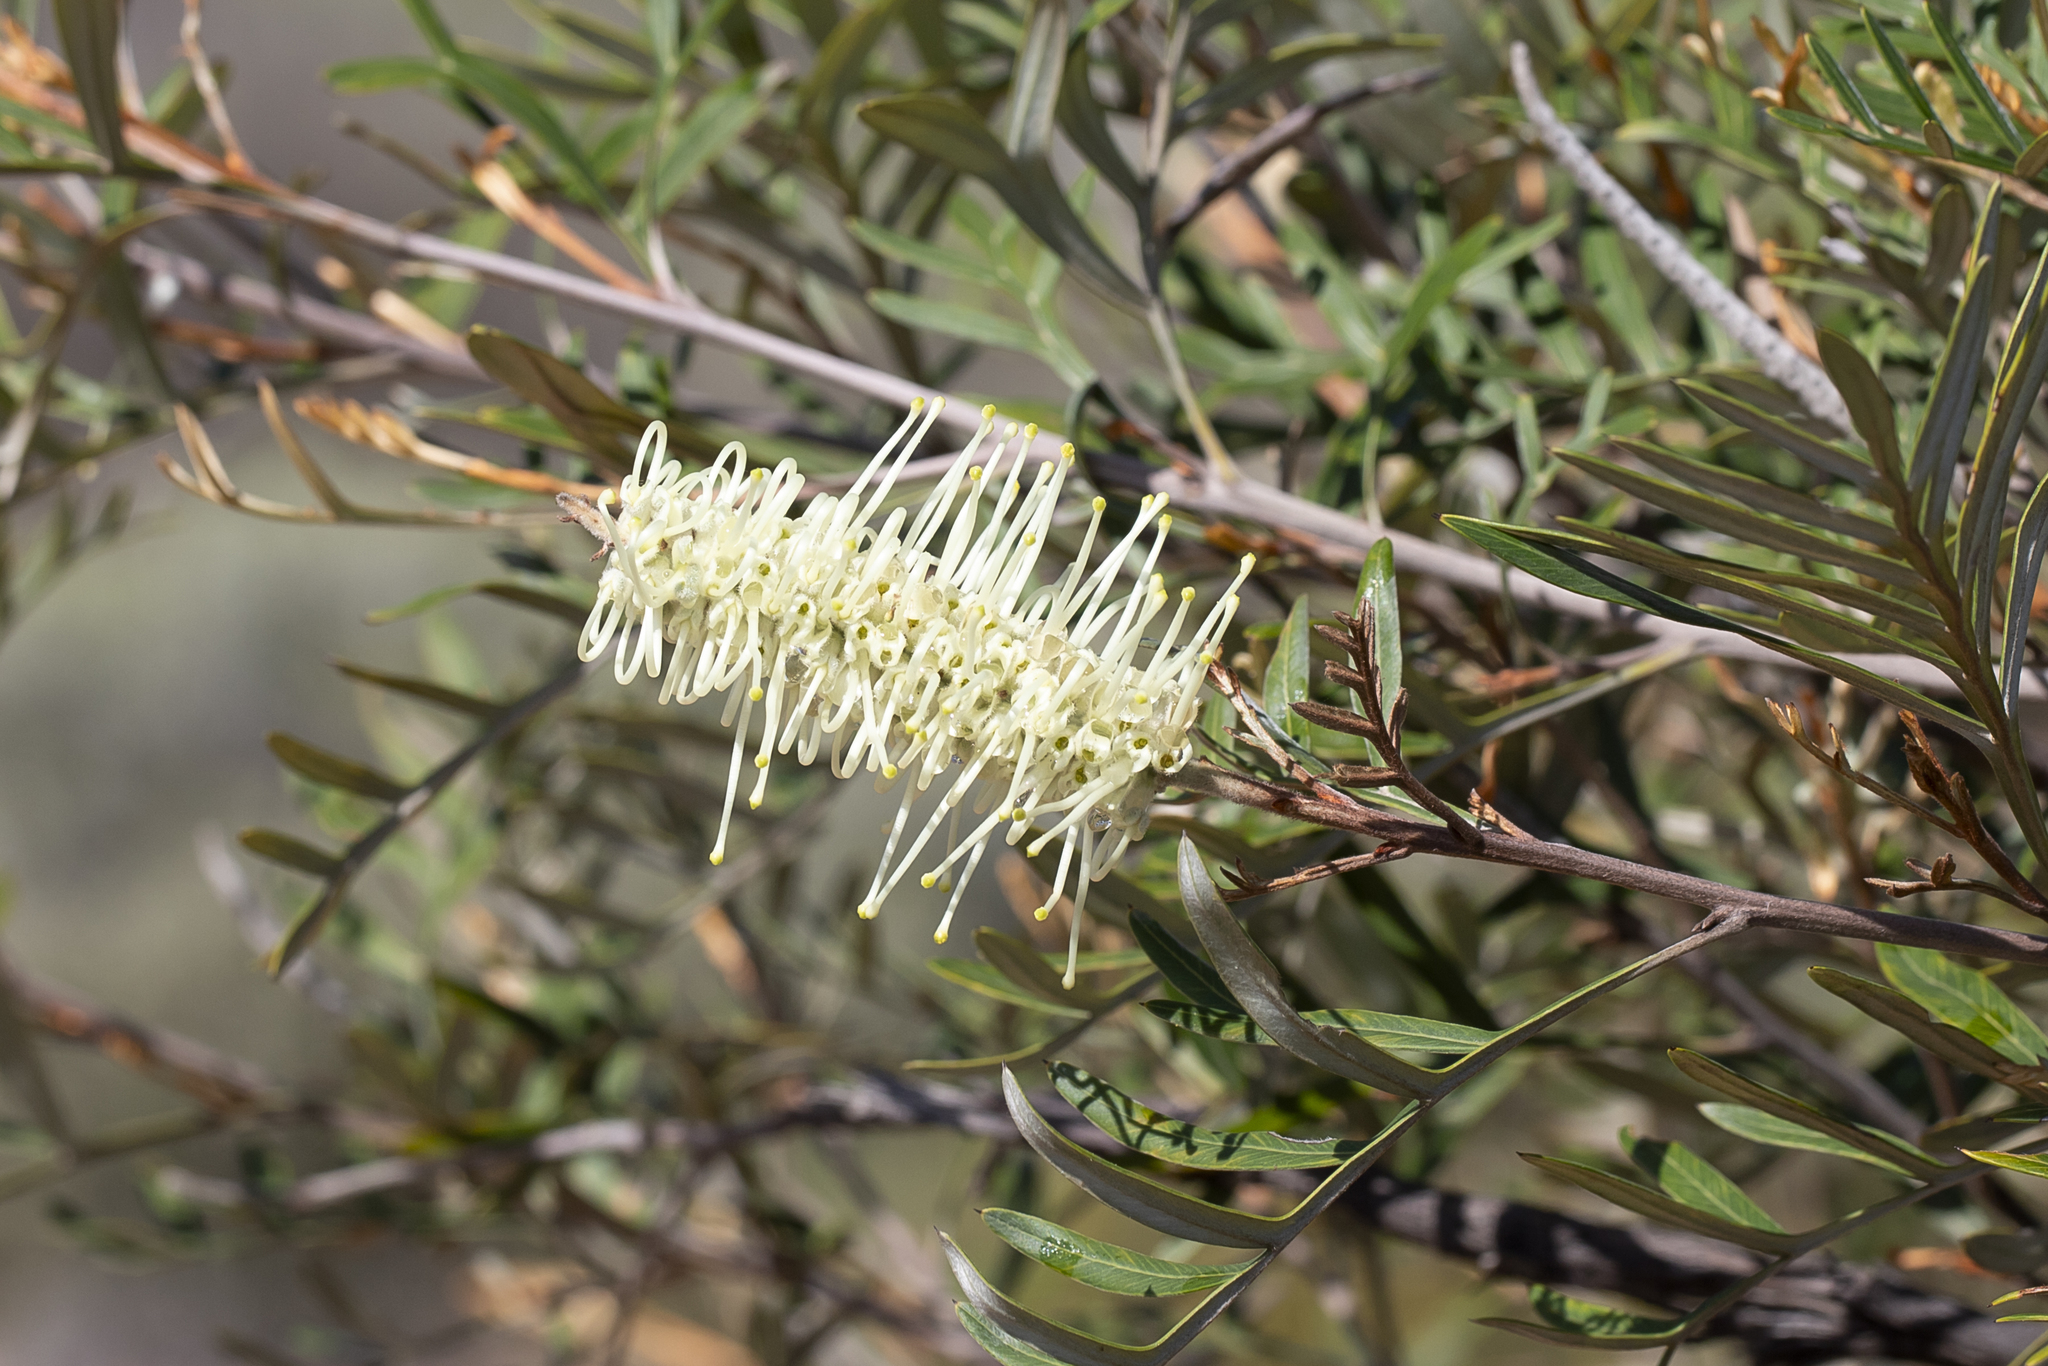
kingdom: Plantae
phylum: Tracheophyta
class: Magnoliopsida
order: Proteales
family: Proteaceae
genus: Grevillea
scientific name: Grevillea sessilis
